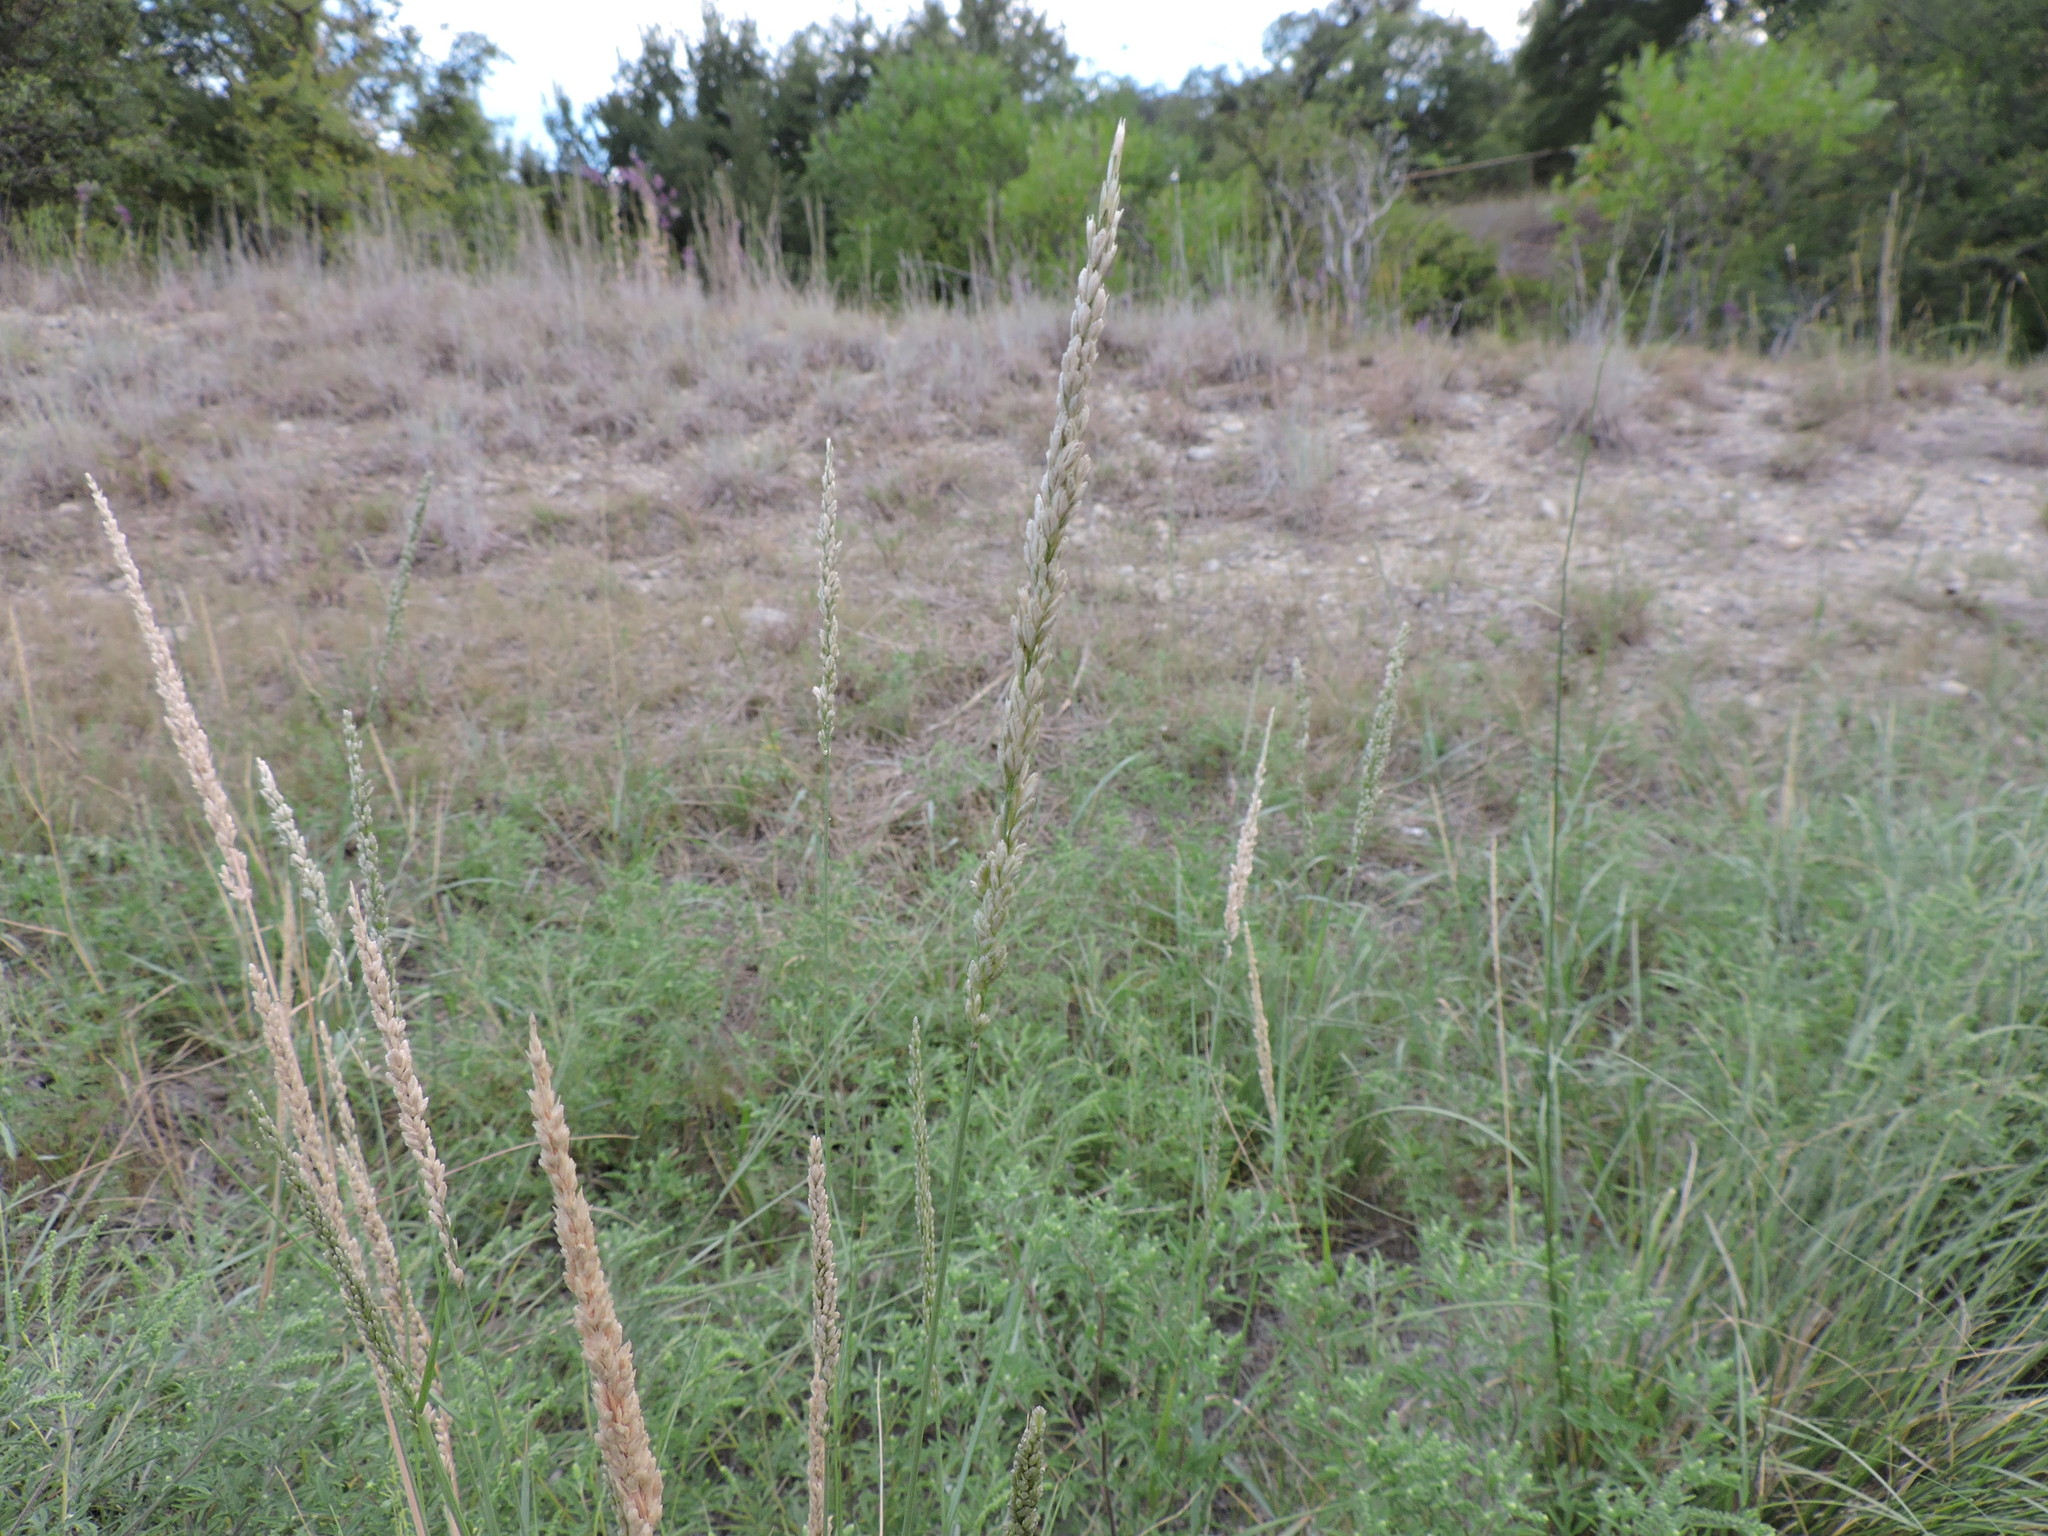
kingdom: Plantae
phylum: Tracheophyta
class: Liliopsida
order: Poales
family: Poaceae
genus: Tridens
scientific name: Tridens albescens
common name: White tridens
